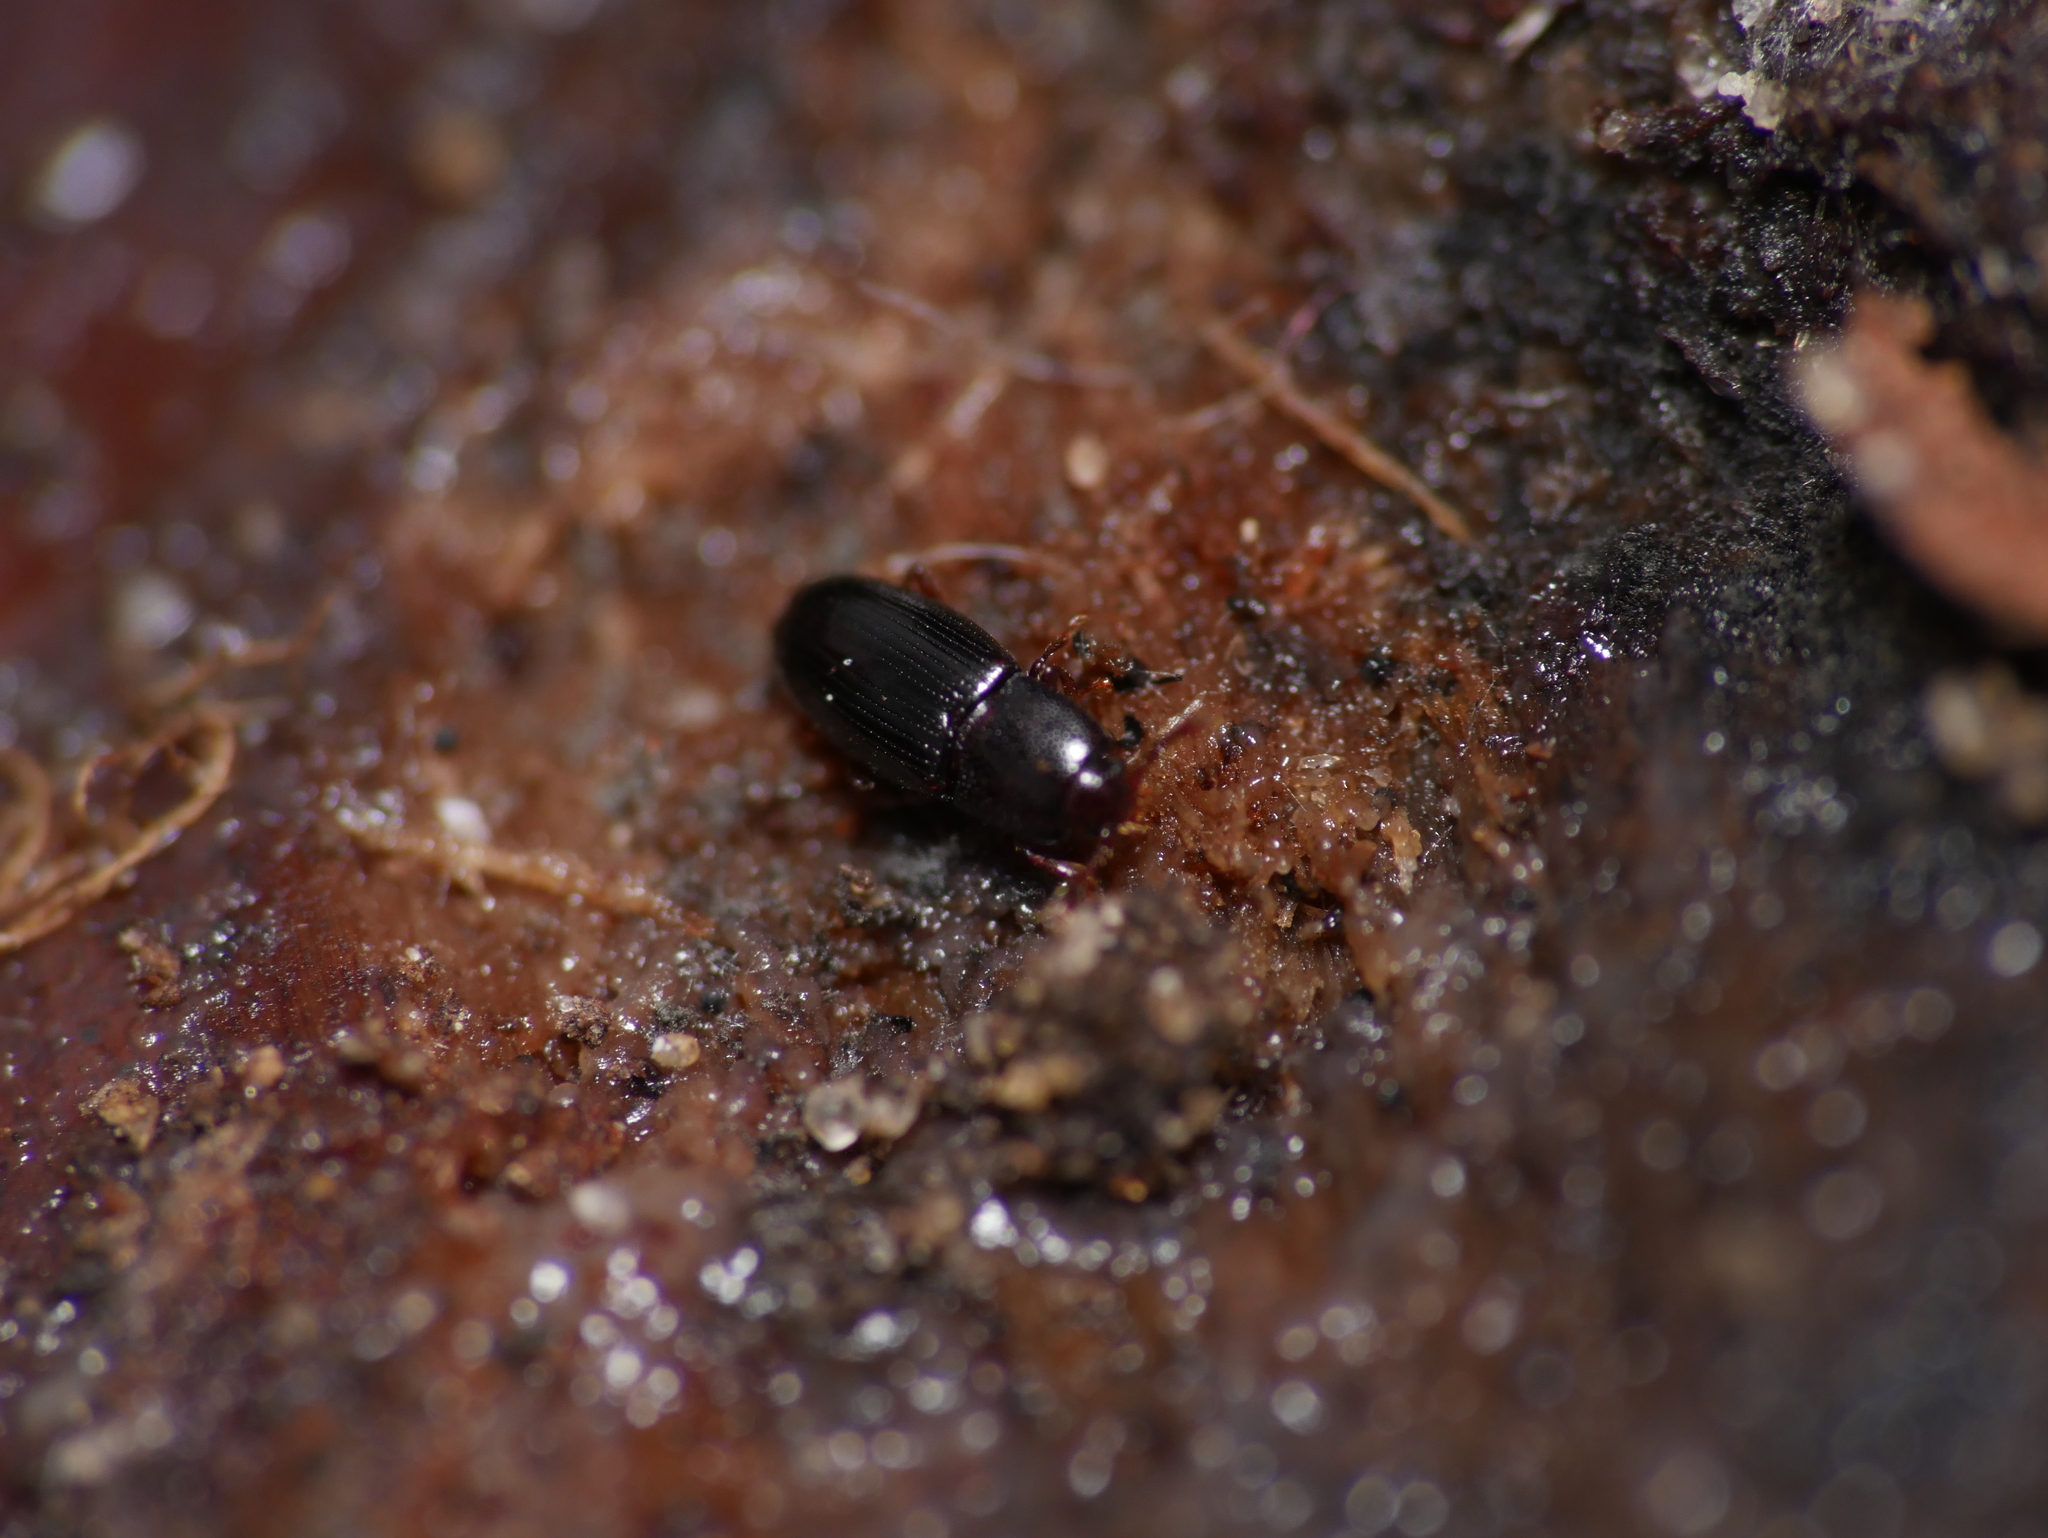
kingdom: Animalia
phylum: Arthropoda
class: Insecta
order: Coleoptera
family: Cerylonidae
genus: Cerylon
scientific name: Cerylon histeroides
